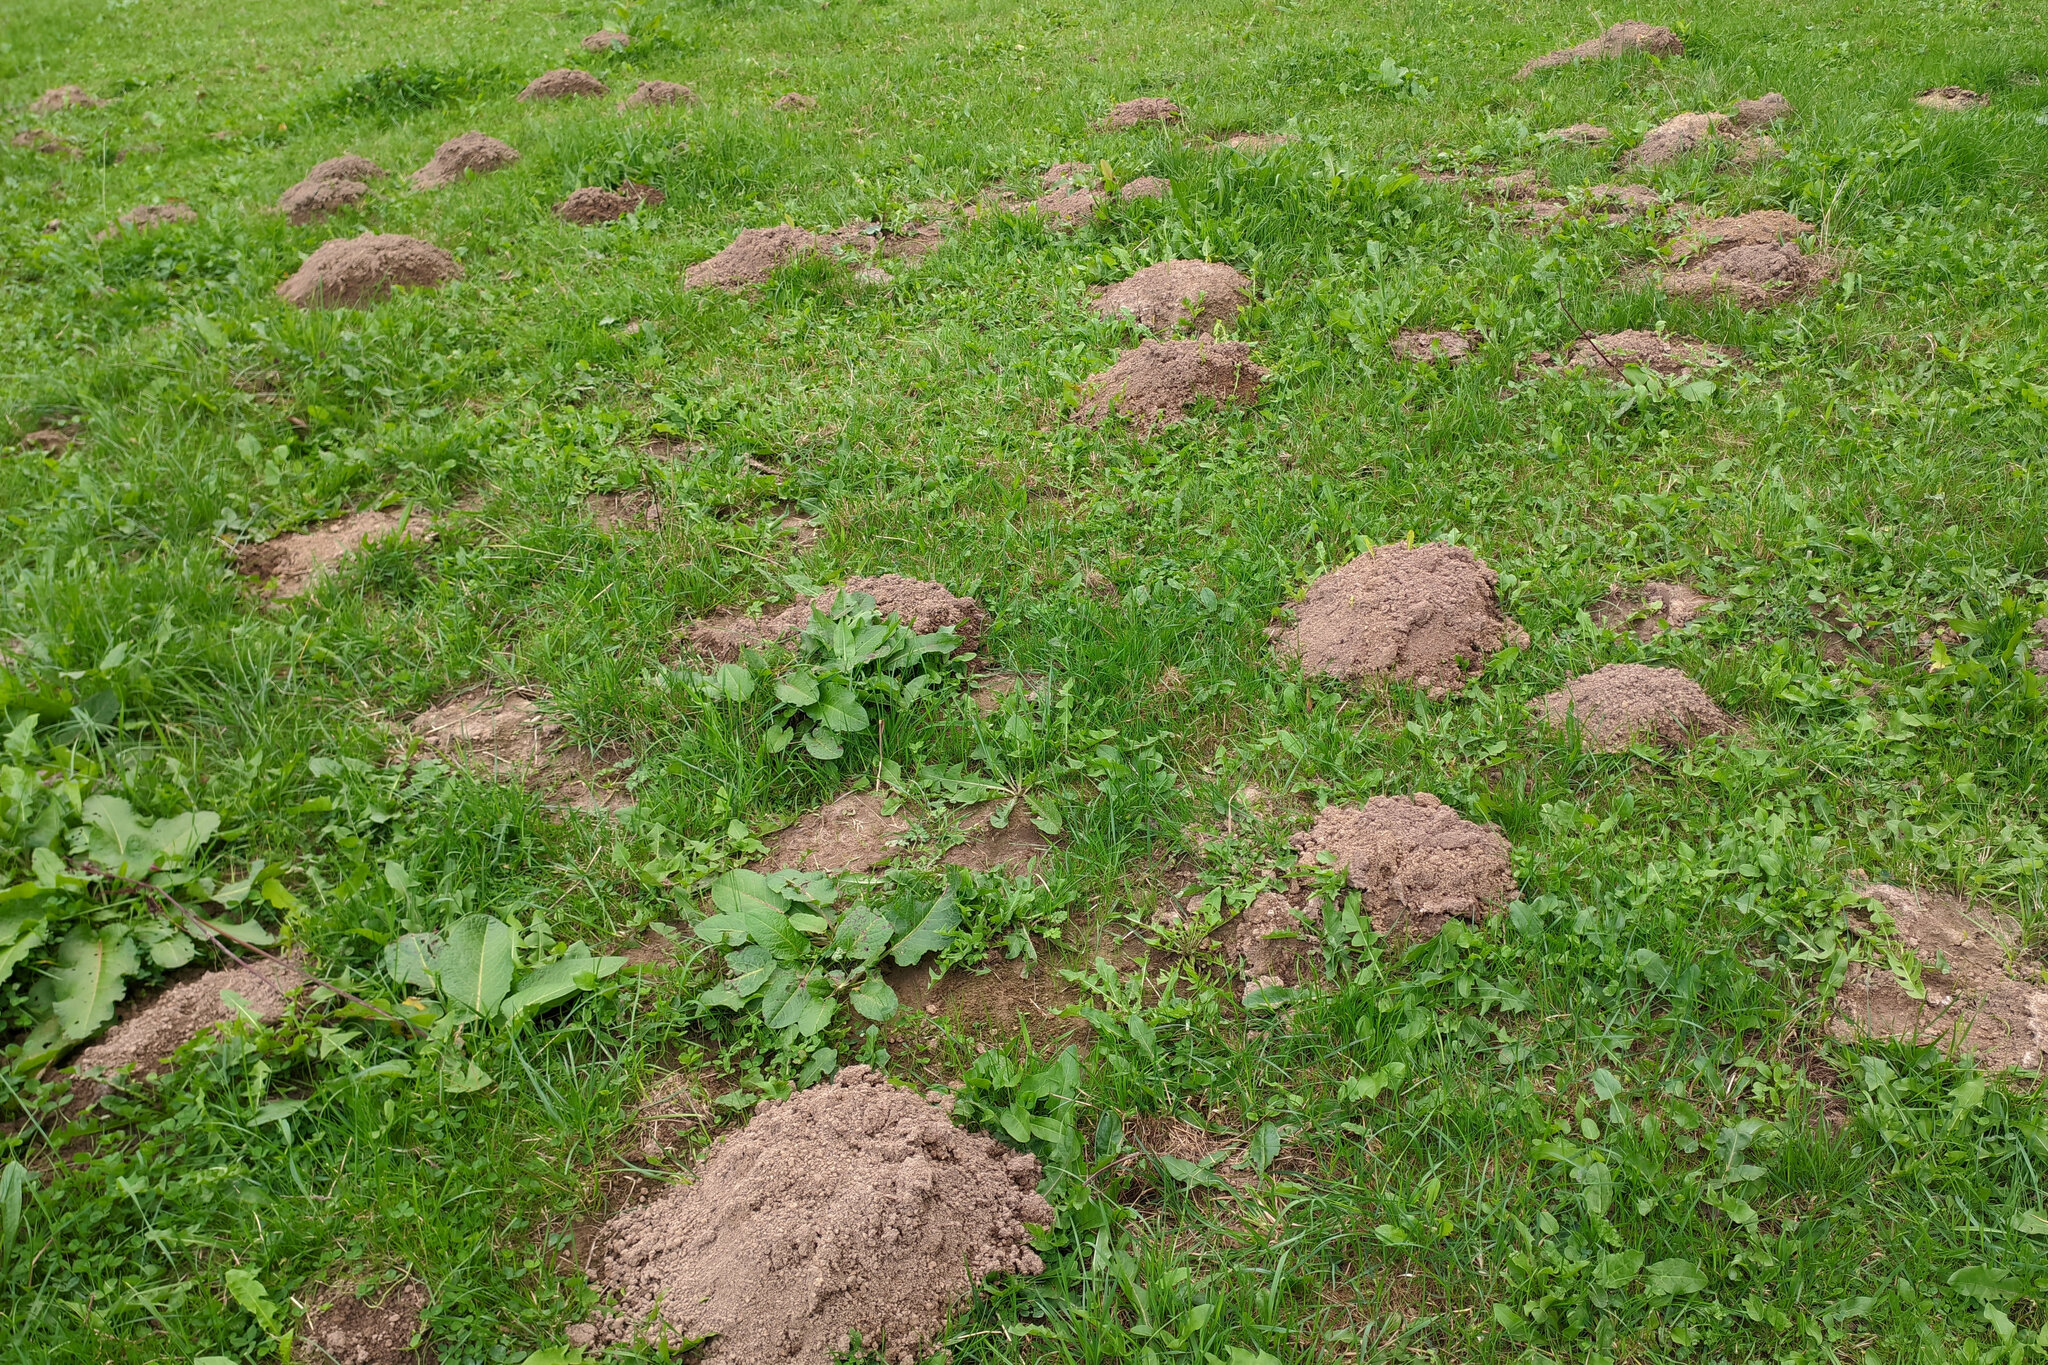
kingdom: Animalia
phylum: Chordata
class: Mammalia
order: Soricomorpha
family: Talpidae
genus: Talpa
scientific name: Talpa europaea
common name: European mole
